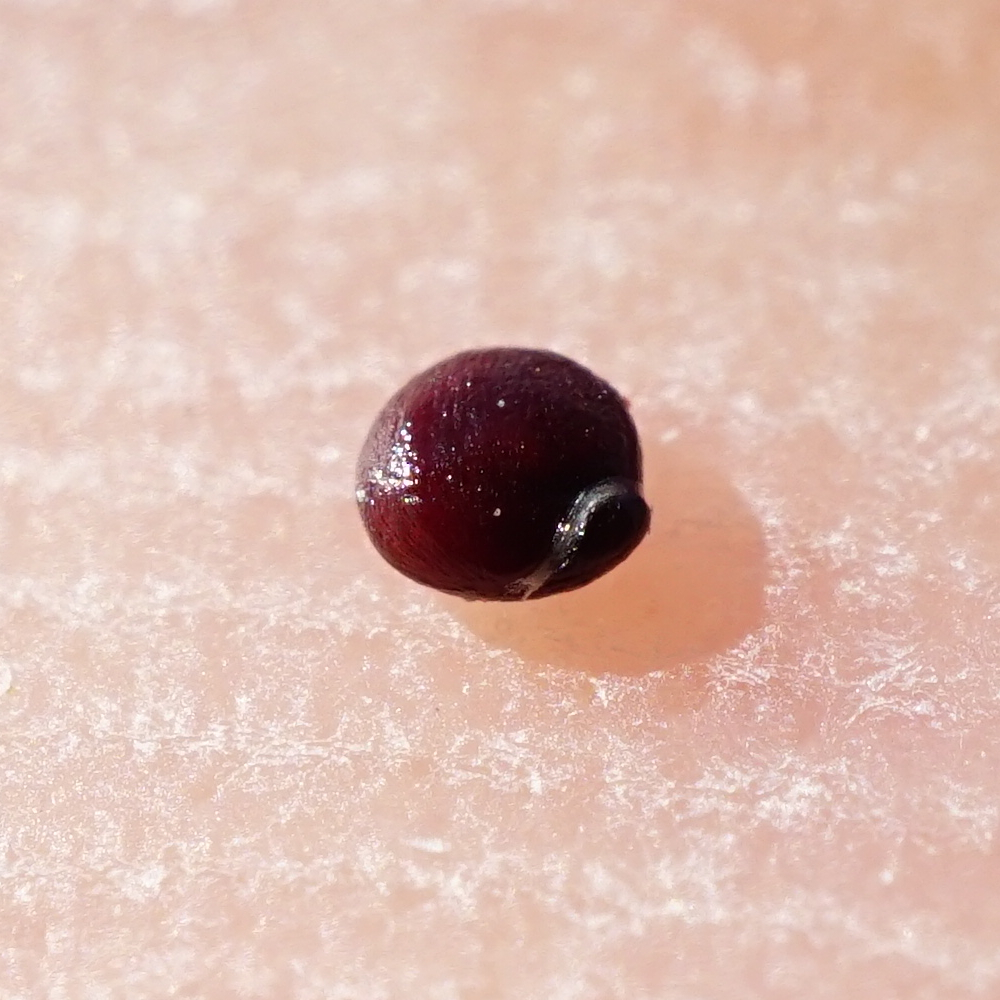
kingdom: Plantae
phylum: Tracheophyta
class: Magnoliopsida
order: Caryophyllales
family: Amaranthaceae
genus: Atriplex
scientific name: Atriplex prostrata
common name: Spear-leaved orache
